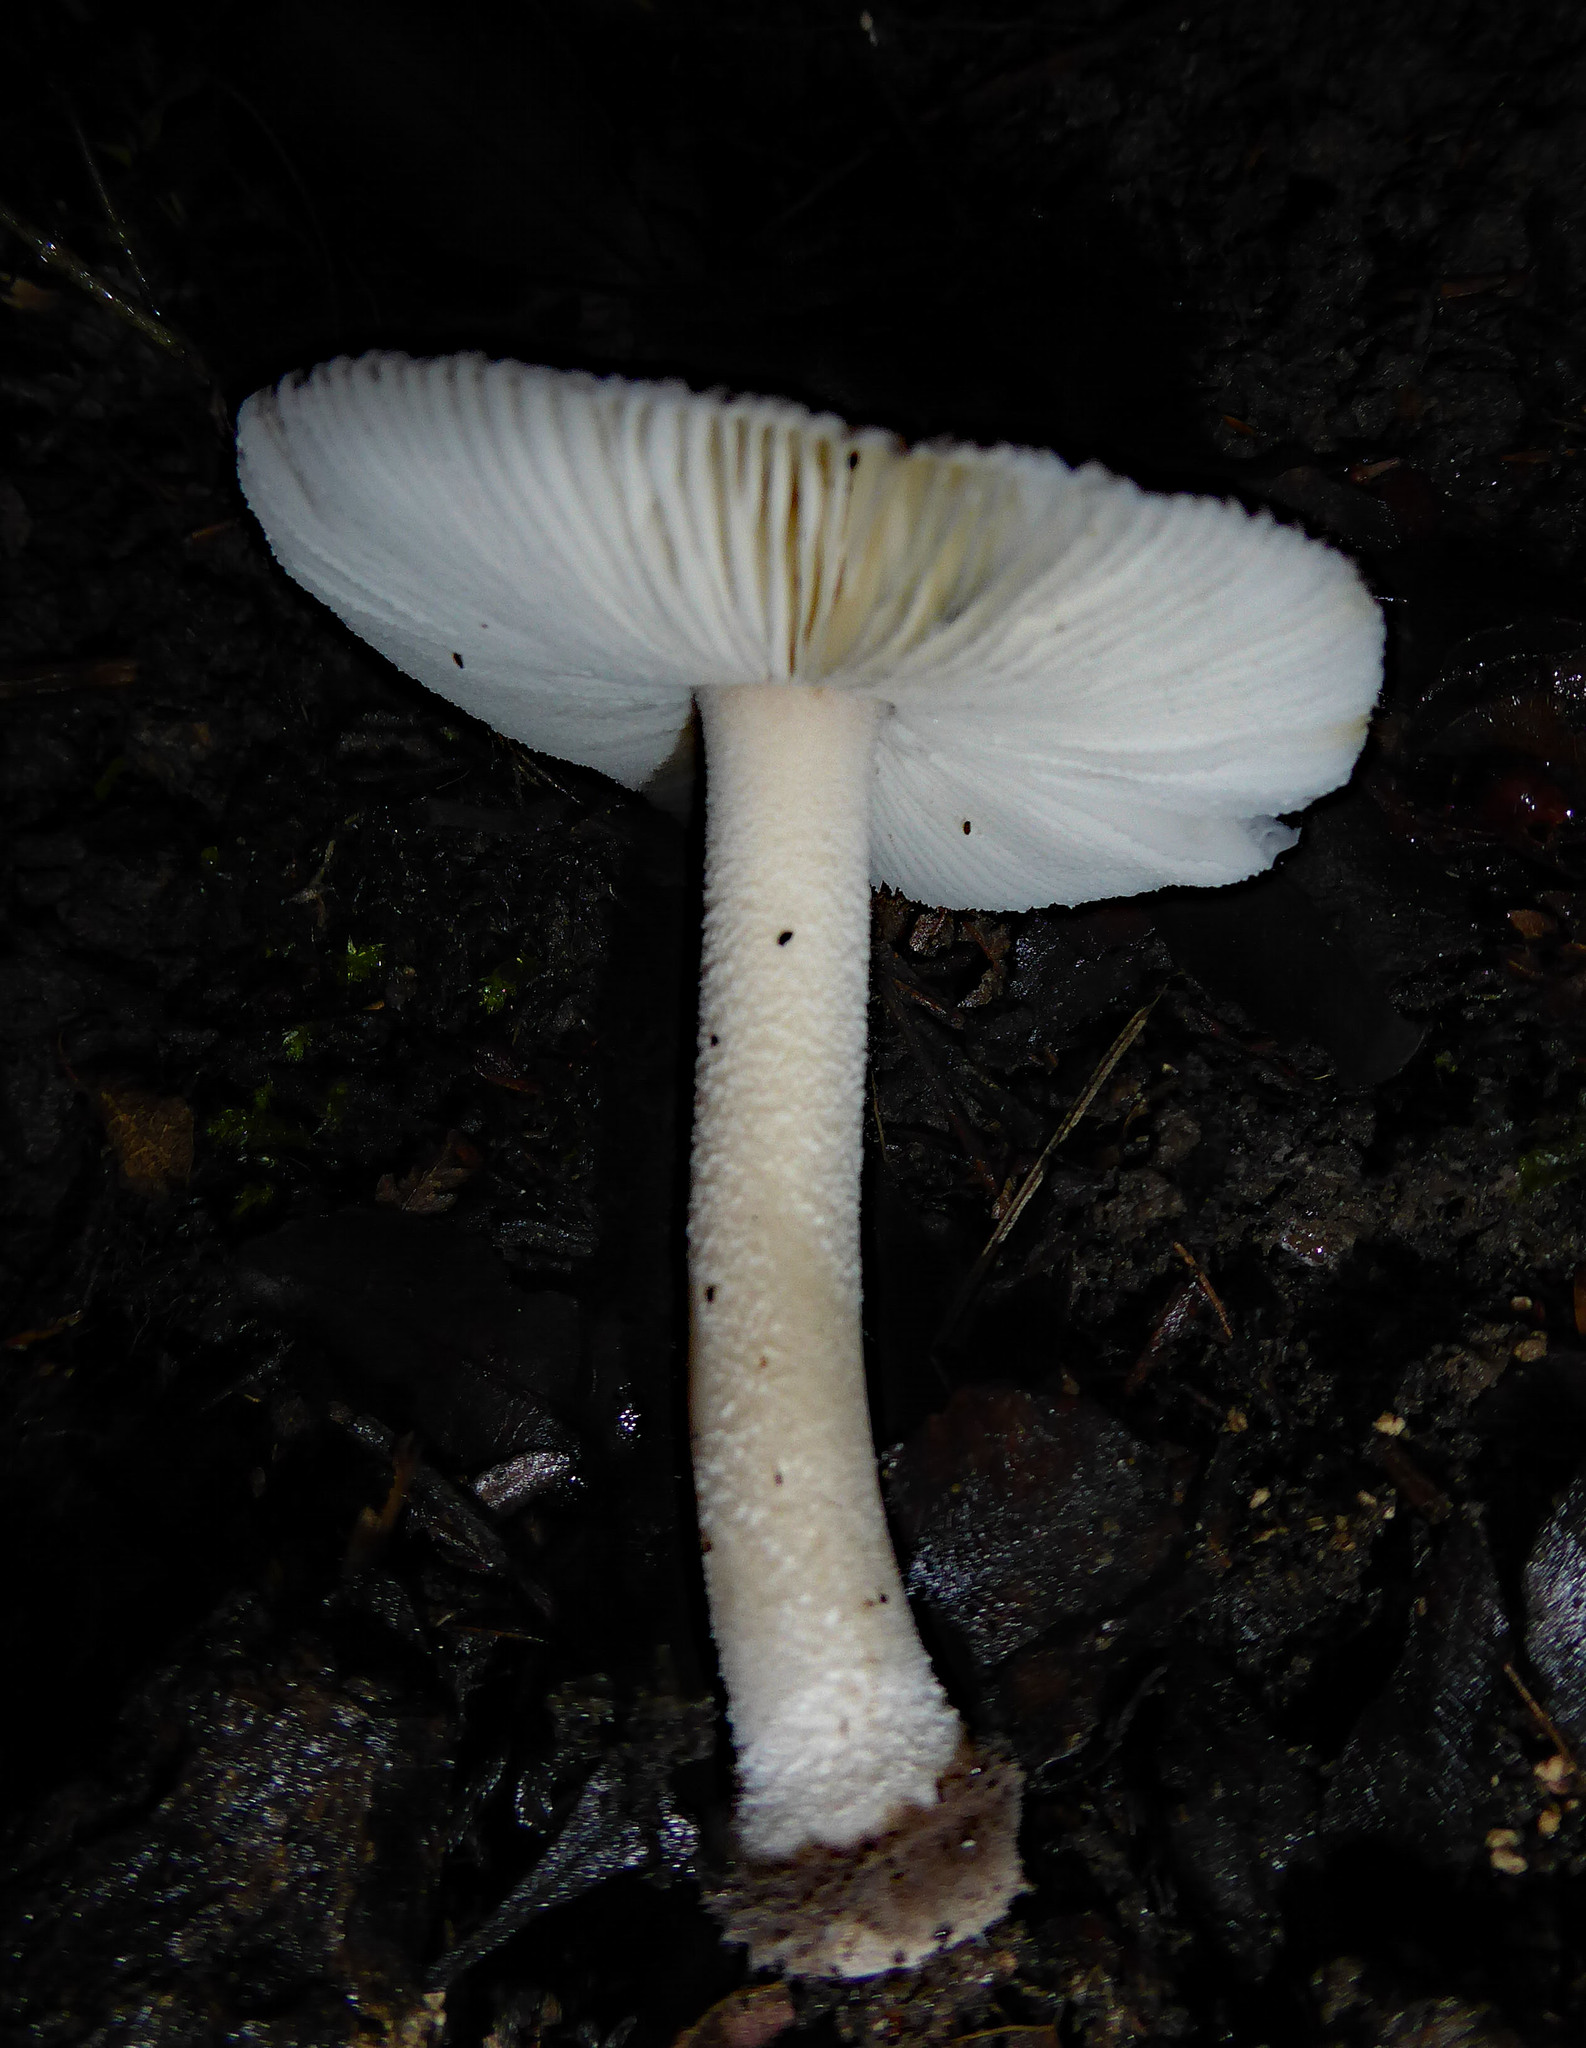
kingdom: Fungi
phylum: Basidiomycota
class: Agaricomycetes
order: Agaricales
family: Amanitaceae
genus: Amanita
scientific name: Amanita nehuta
